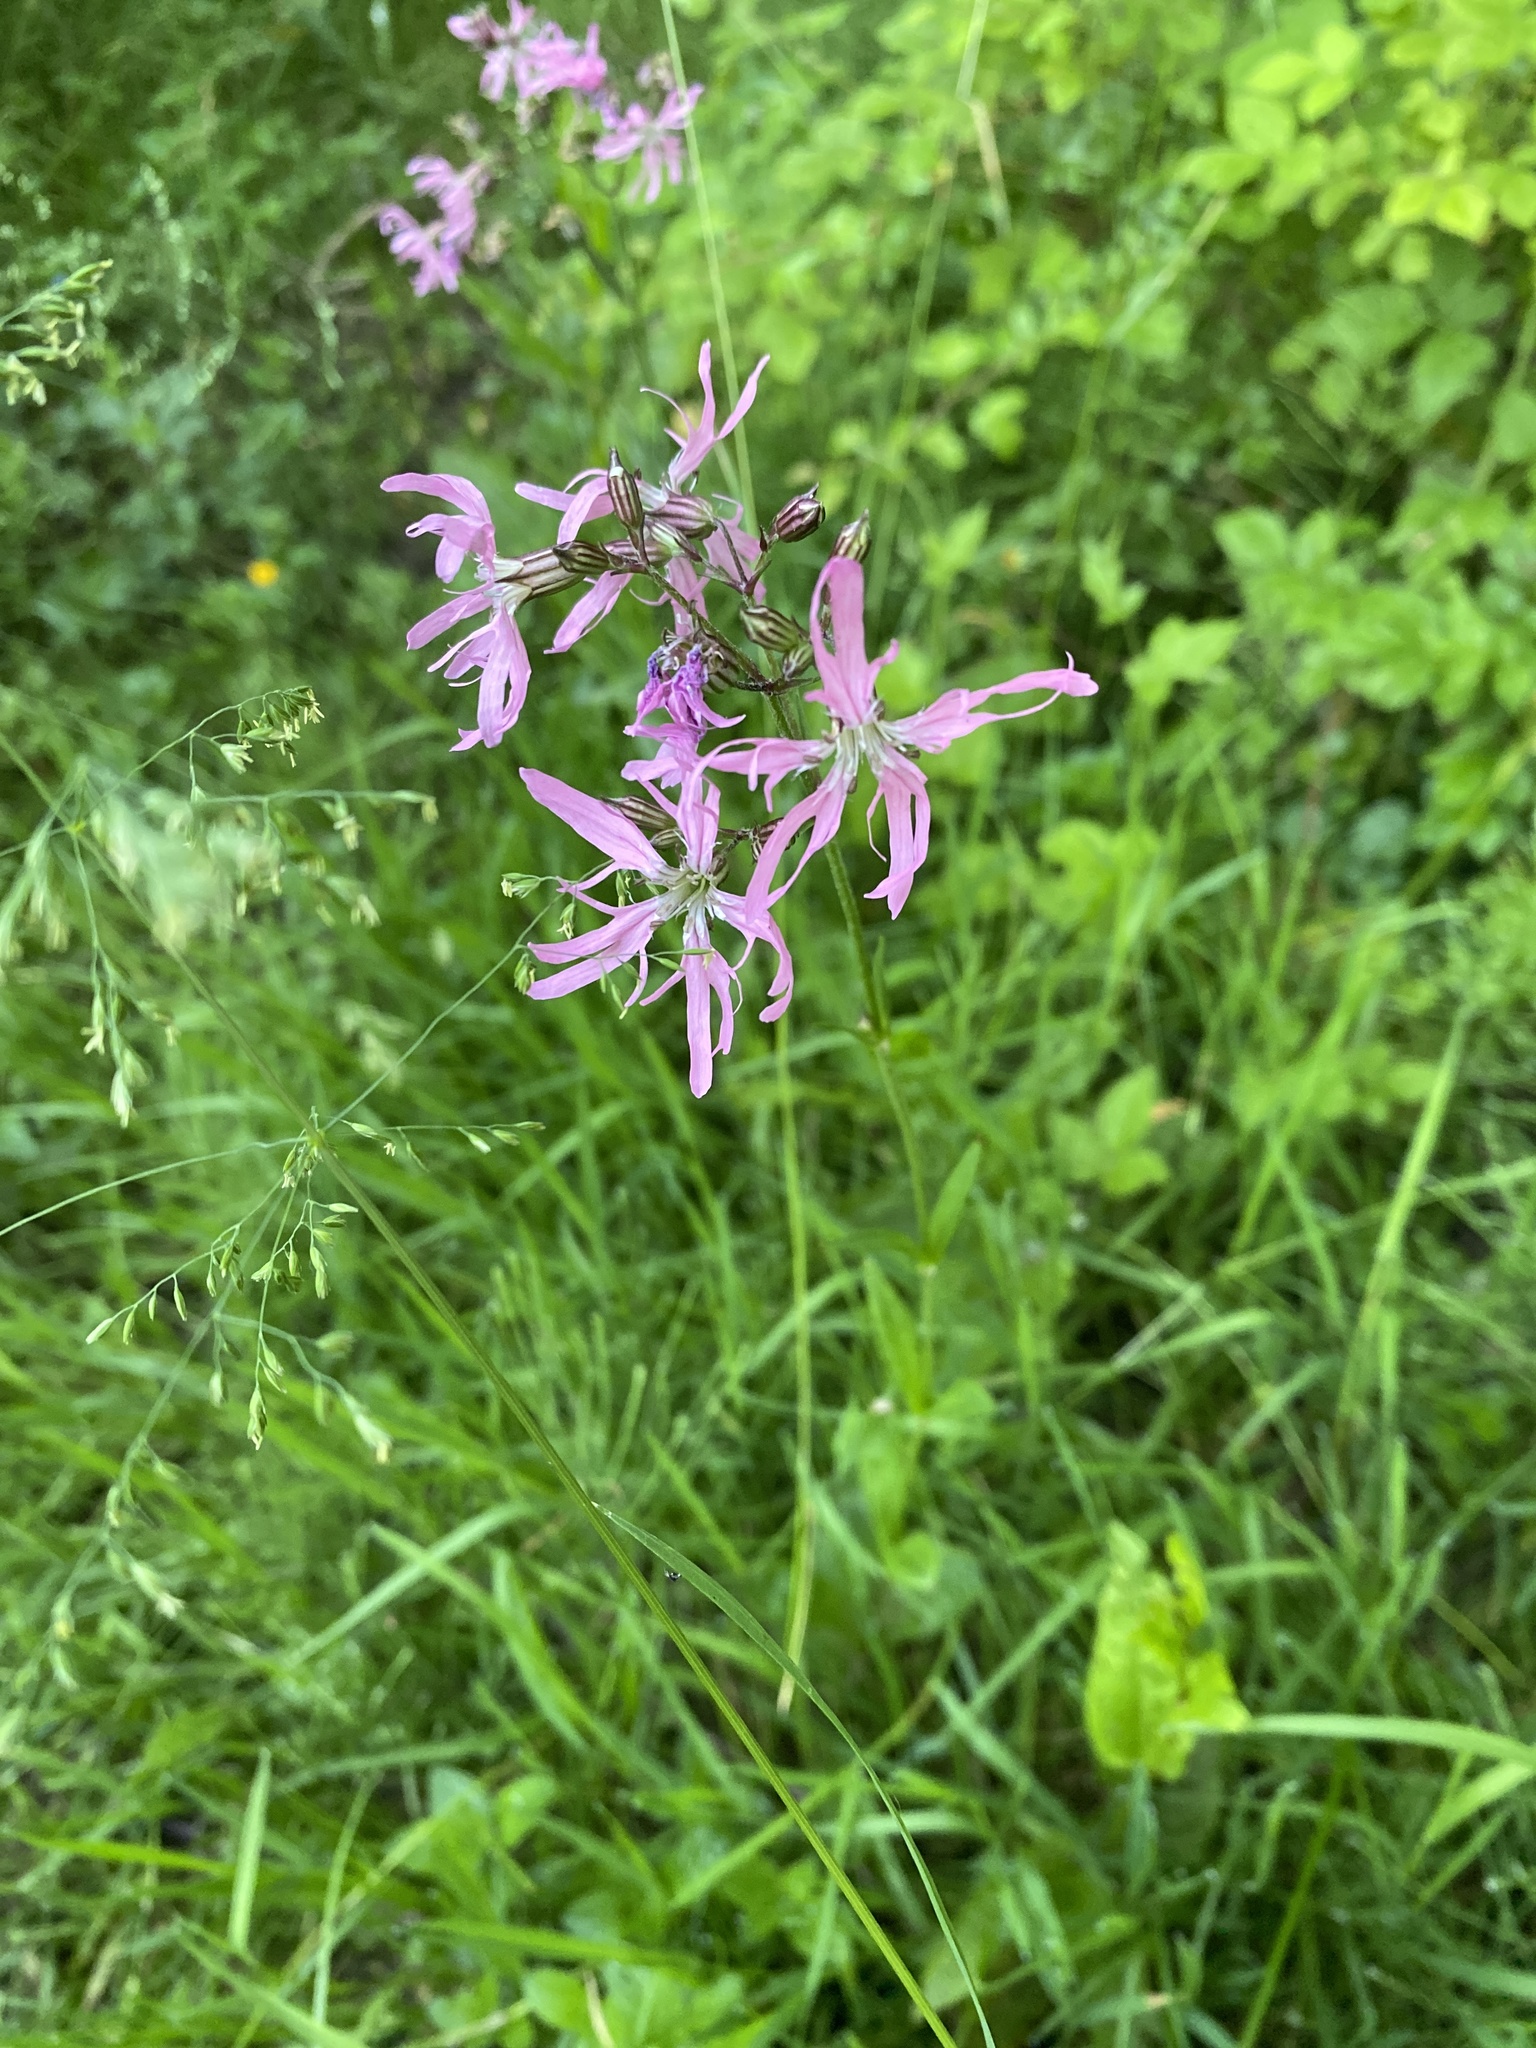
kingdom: Plantae
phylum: Tracheophyta
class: Magnoliopsida
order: Caryophyllales
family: Caryophyllaceae
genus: Silene
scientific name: Silene flos-cuculi
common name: Ragged-robin
